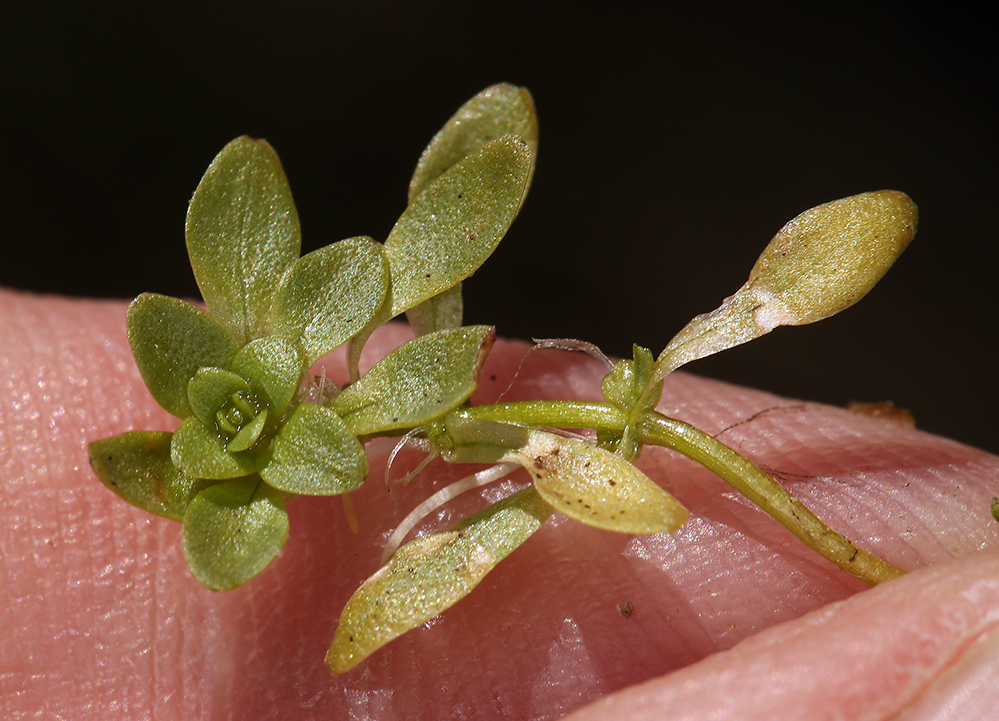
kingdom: Plantae
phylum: Tracheophyta
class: Magnoliopsida
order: Lamiales
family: Plantaginaceae
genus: Callitriche
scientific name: Callitriche palustris
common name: Spring water-starwort
